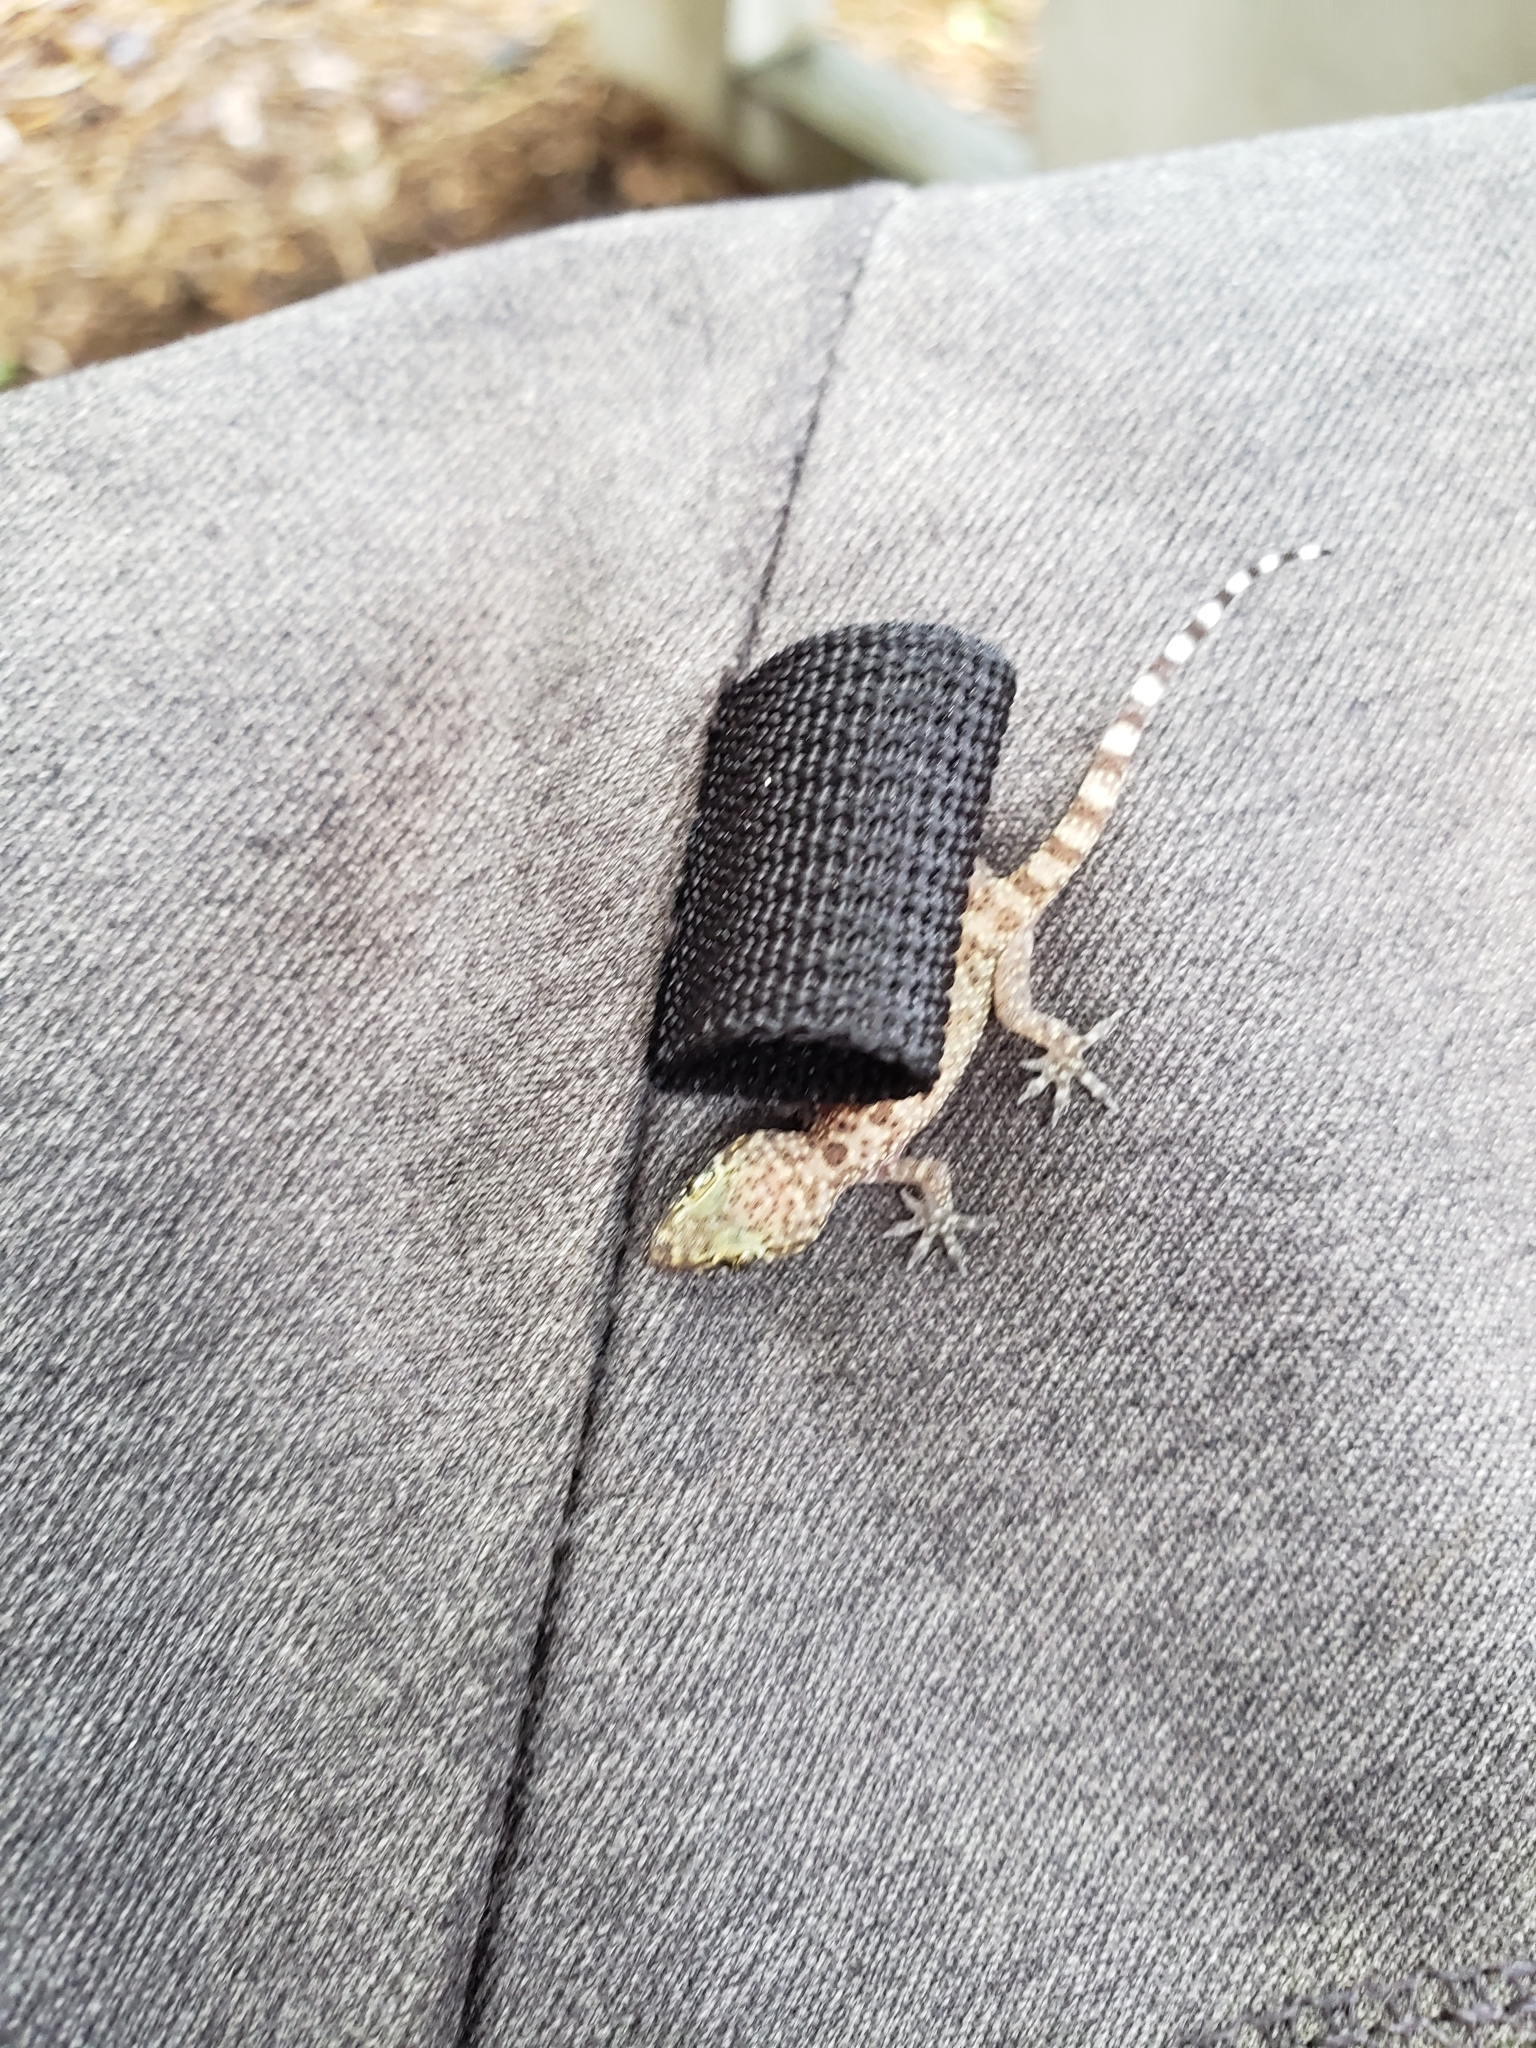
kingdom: Animalia
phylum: Chordata
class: Squamata
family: Gekkonidae
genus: Hemidactylus
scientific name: Hemidactylus turcicus
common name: Turkish gecko
